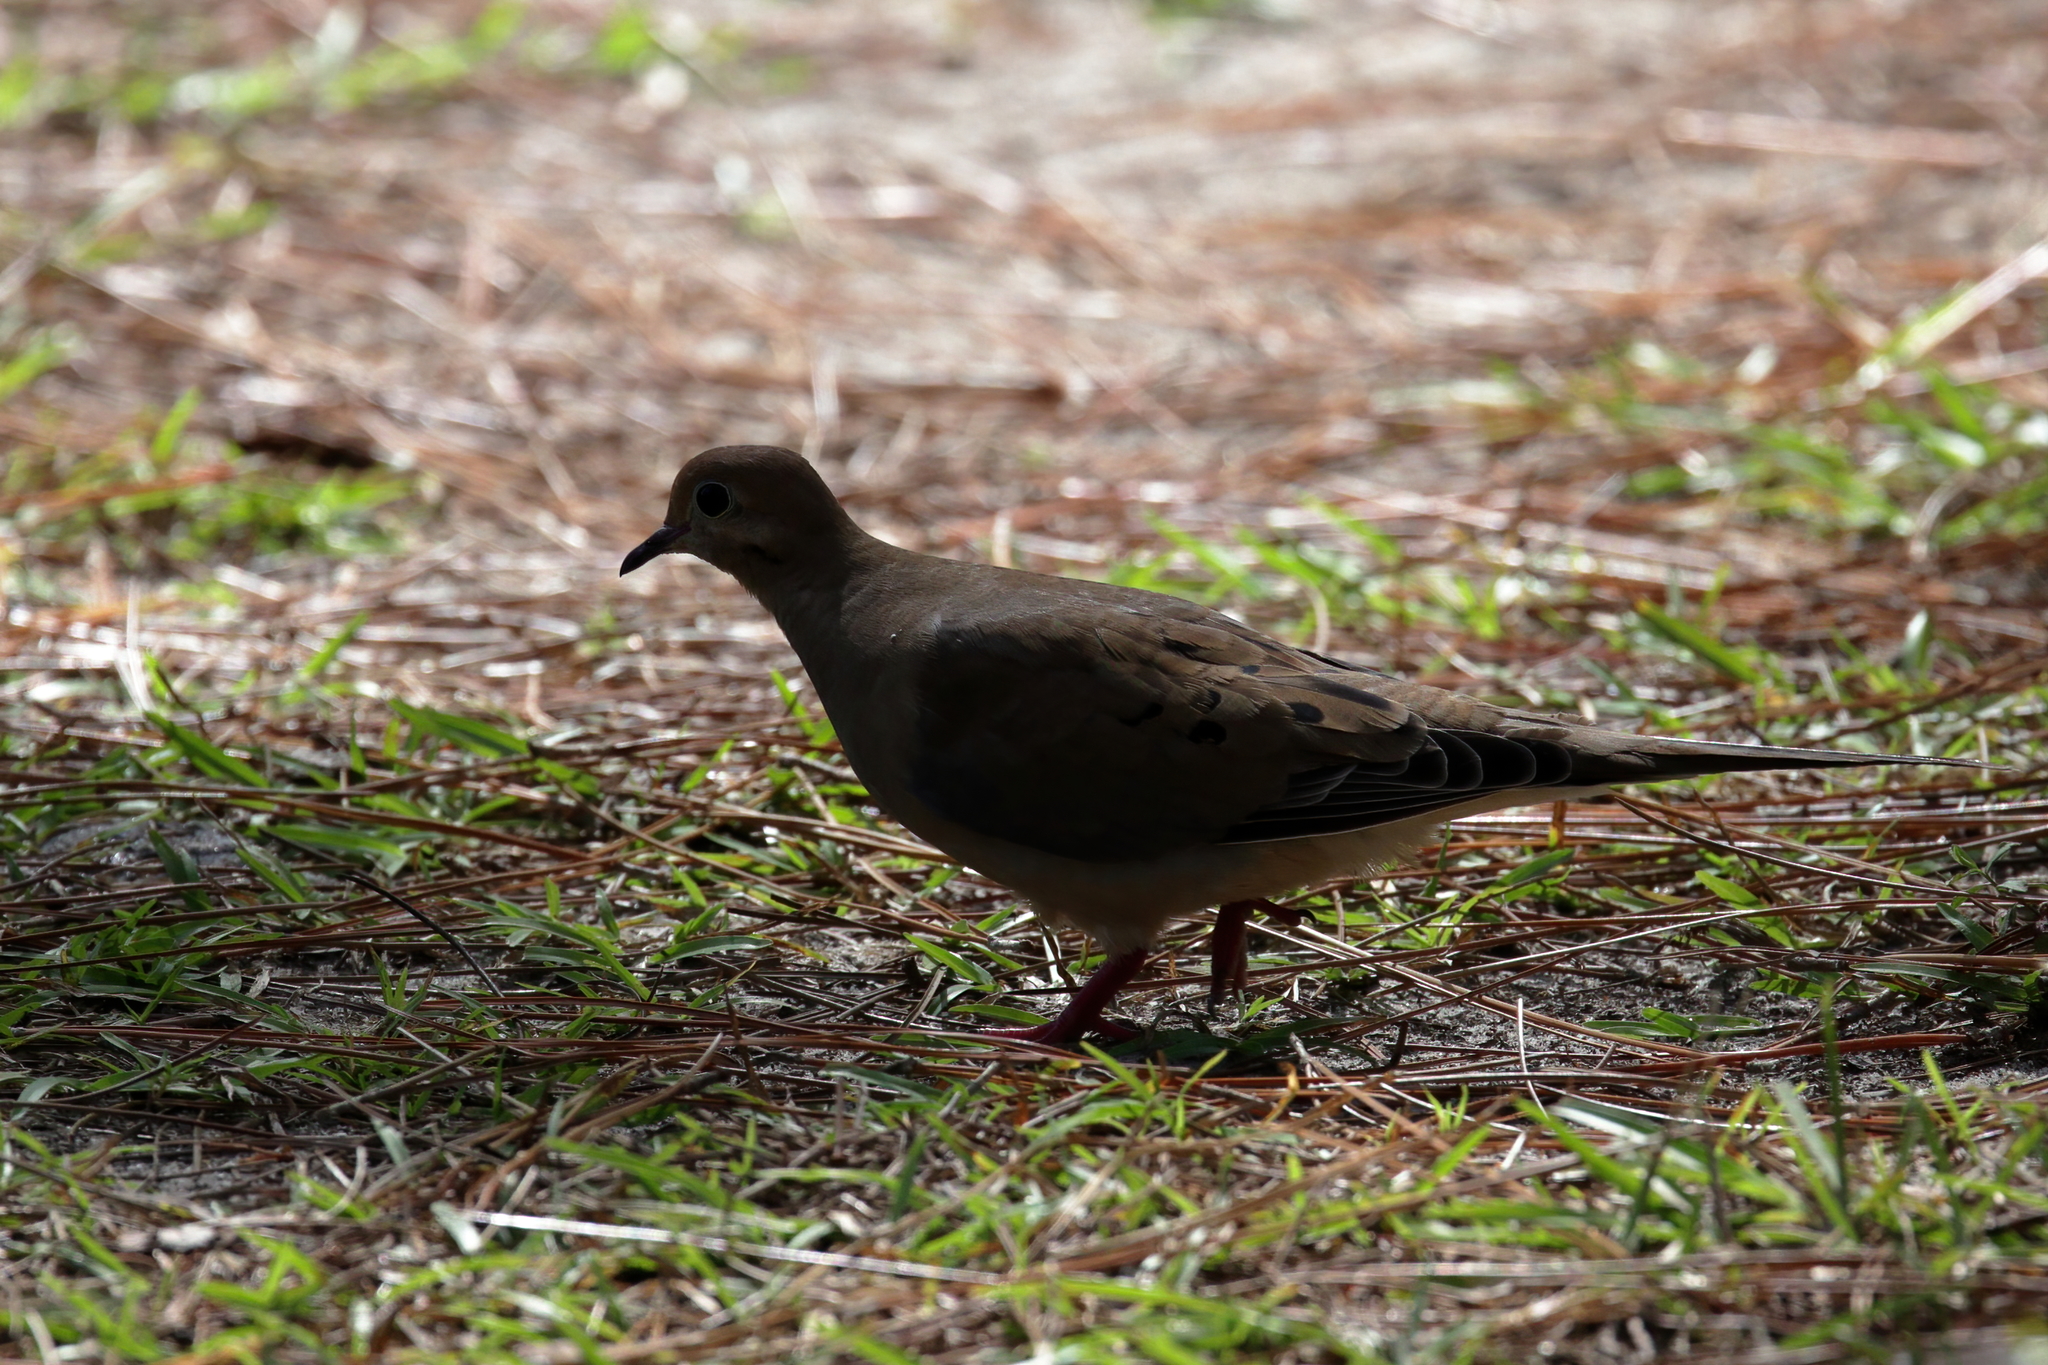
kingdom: Animalia
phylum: Chordata
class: Aves
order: Columbiformes
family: Columbidae
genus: Zenaida
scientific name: Zenaida macroura
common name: Mourning dove
